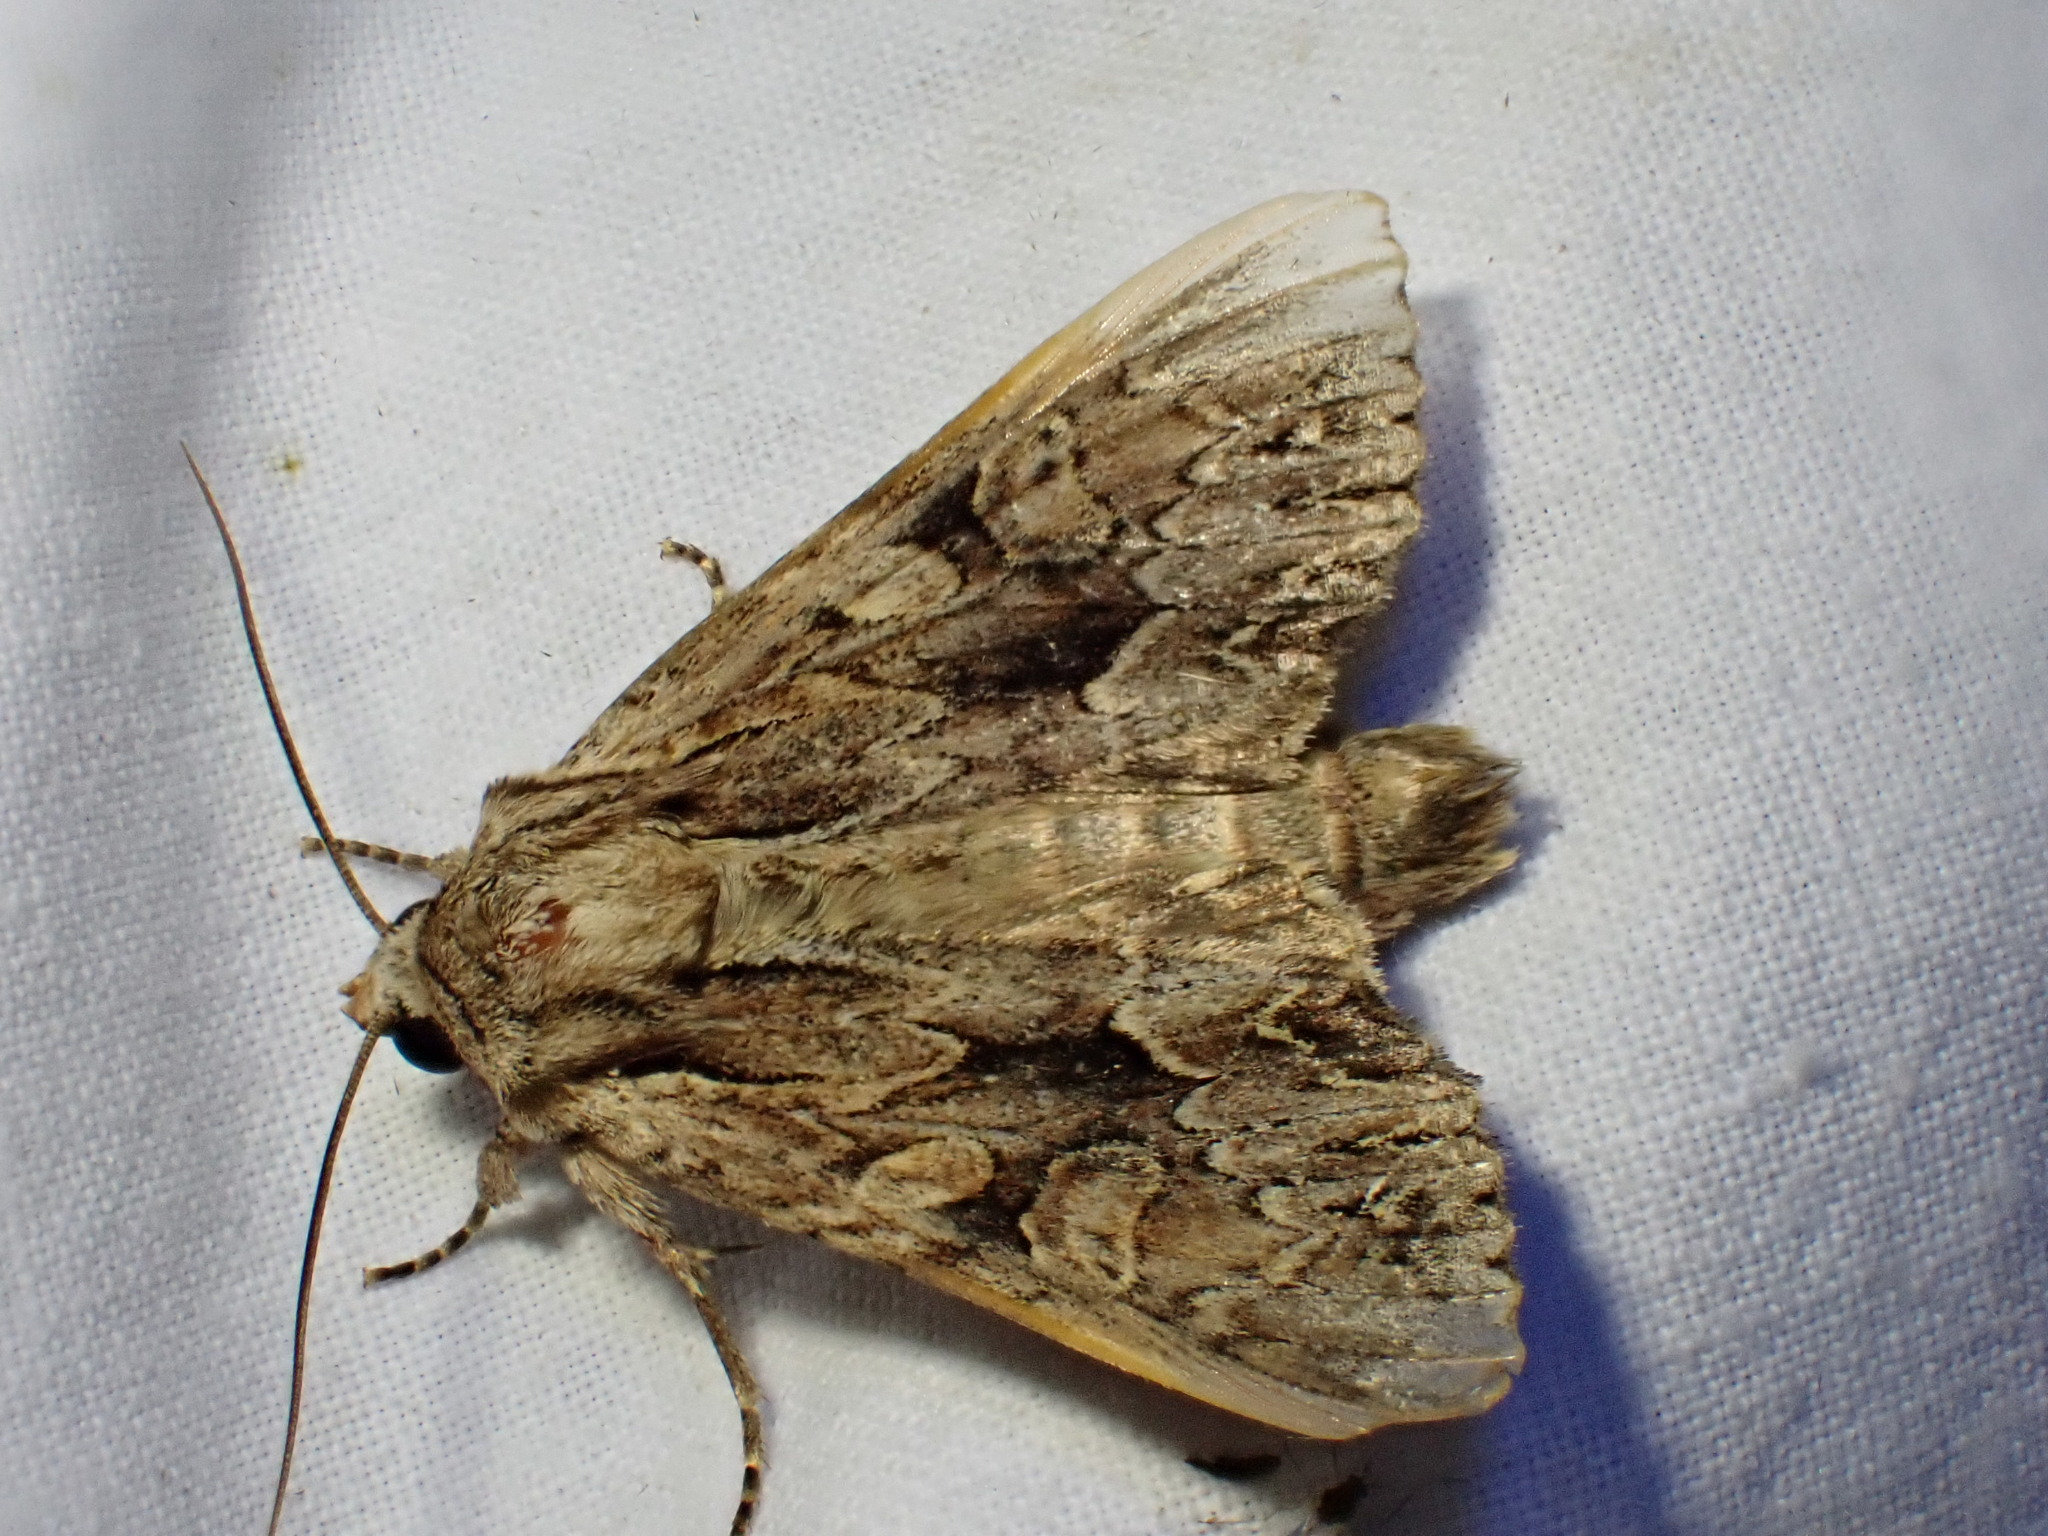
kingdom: Animalia
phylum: Arthropoda
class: Insecta
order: Lepidoptera
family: Noctuidae
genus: Apamea
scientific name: Apamea monoglypha
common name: Dark arches
